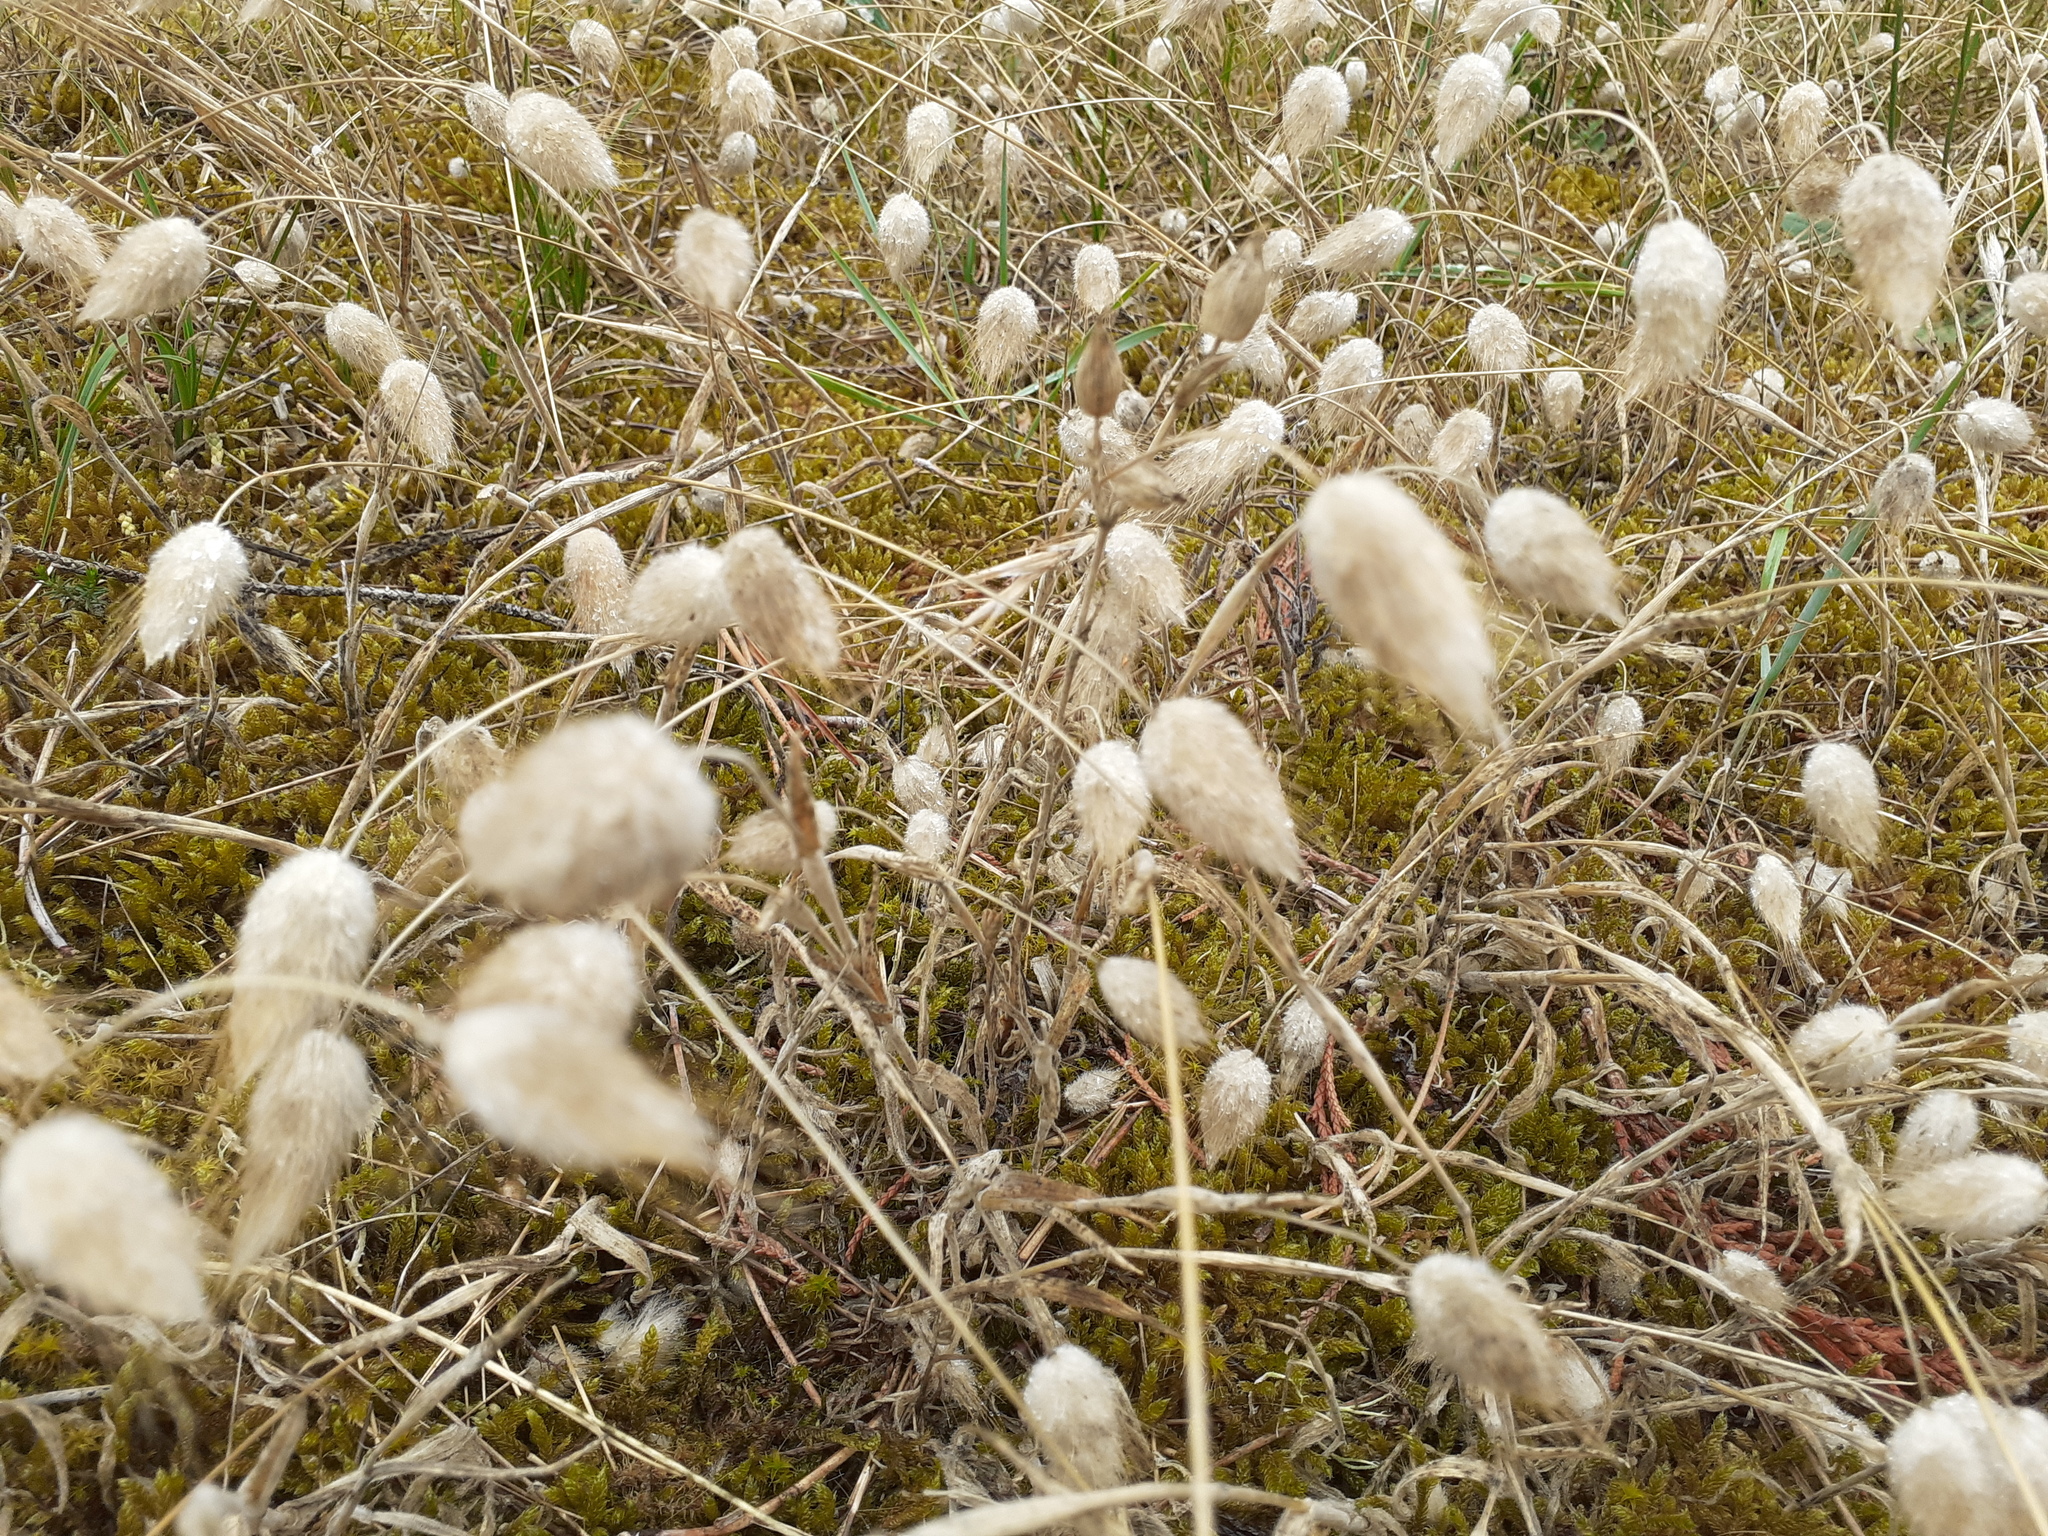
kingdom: Plantae
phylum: Tracheophyta
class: Liliopsida
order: Poales
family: Poaceae
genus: Lagurus
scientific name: Lagurus ovatus
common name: Hare's-tail
